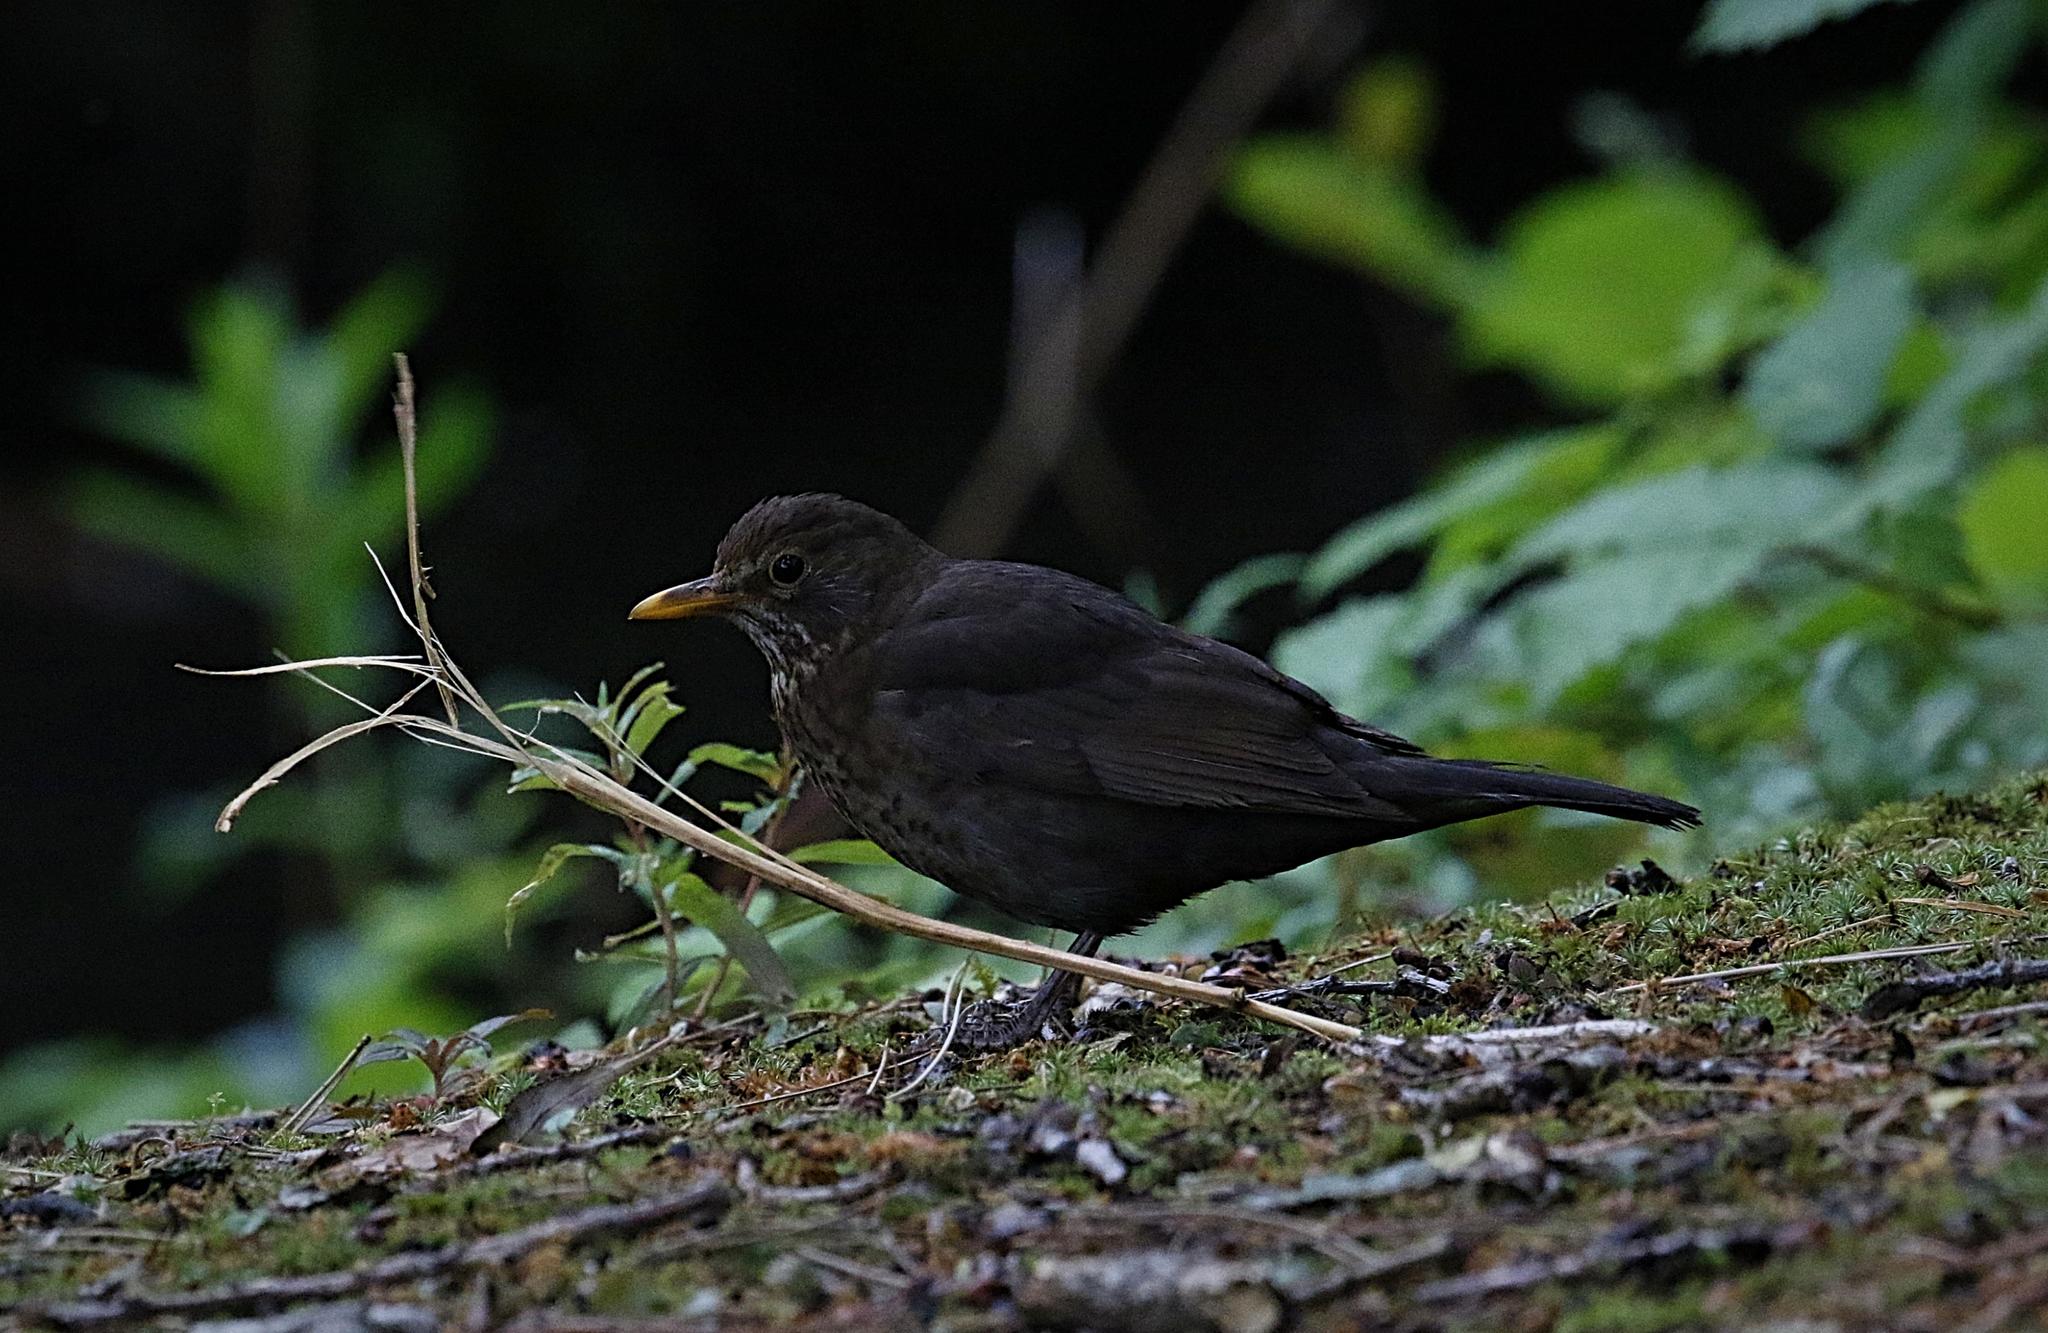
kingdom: Animalia
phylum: Chordata
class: Aves
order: Passeriformes
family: Turdidae
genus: Turdus
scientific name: Turdus merula
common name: Common blackbird
